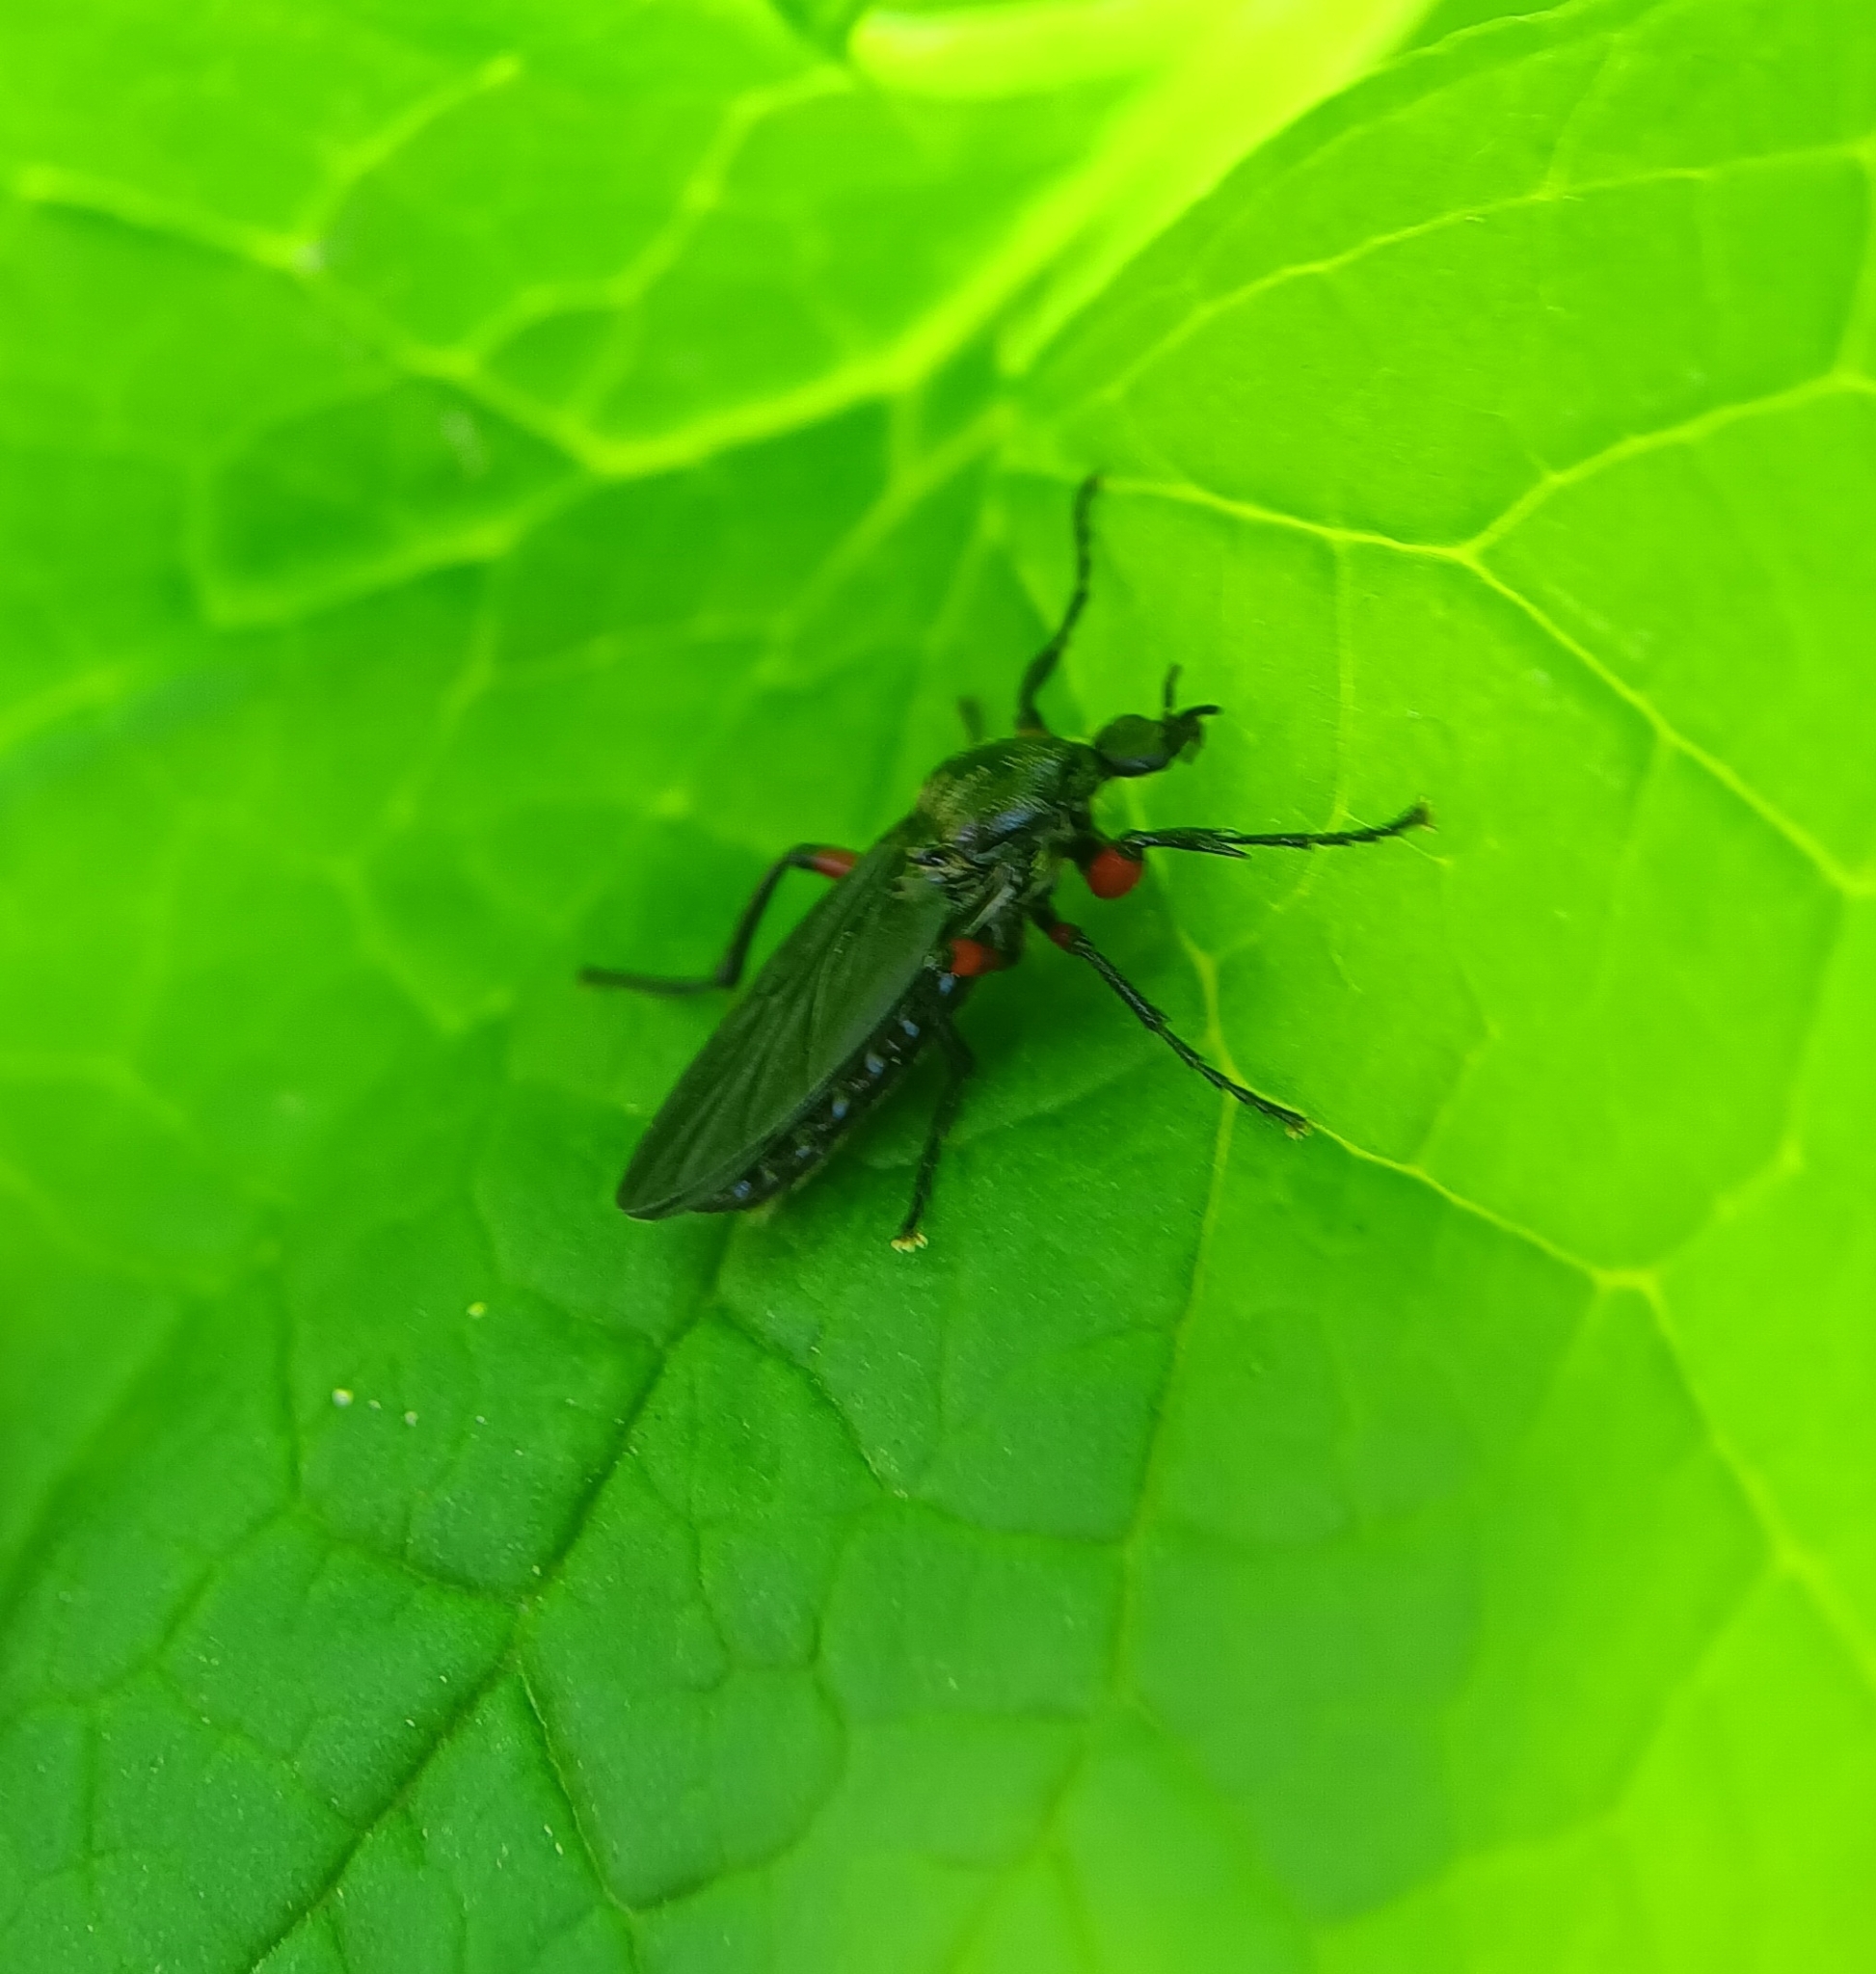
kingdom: Animalia
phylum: Arthropoda
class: Insecta
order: Diptera
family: Bibionidae
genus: Bibio
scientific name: Bibio femoratus
